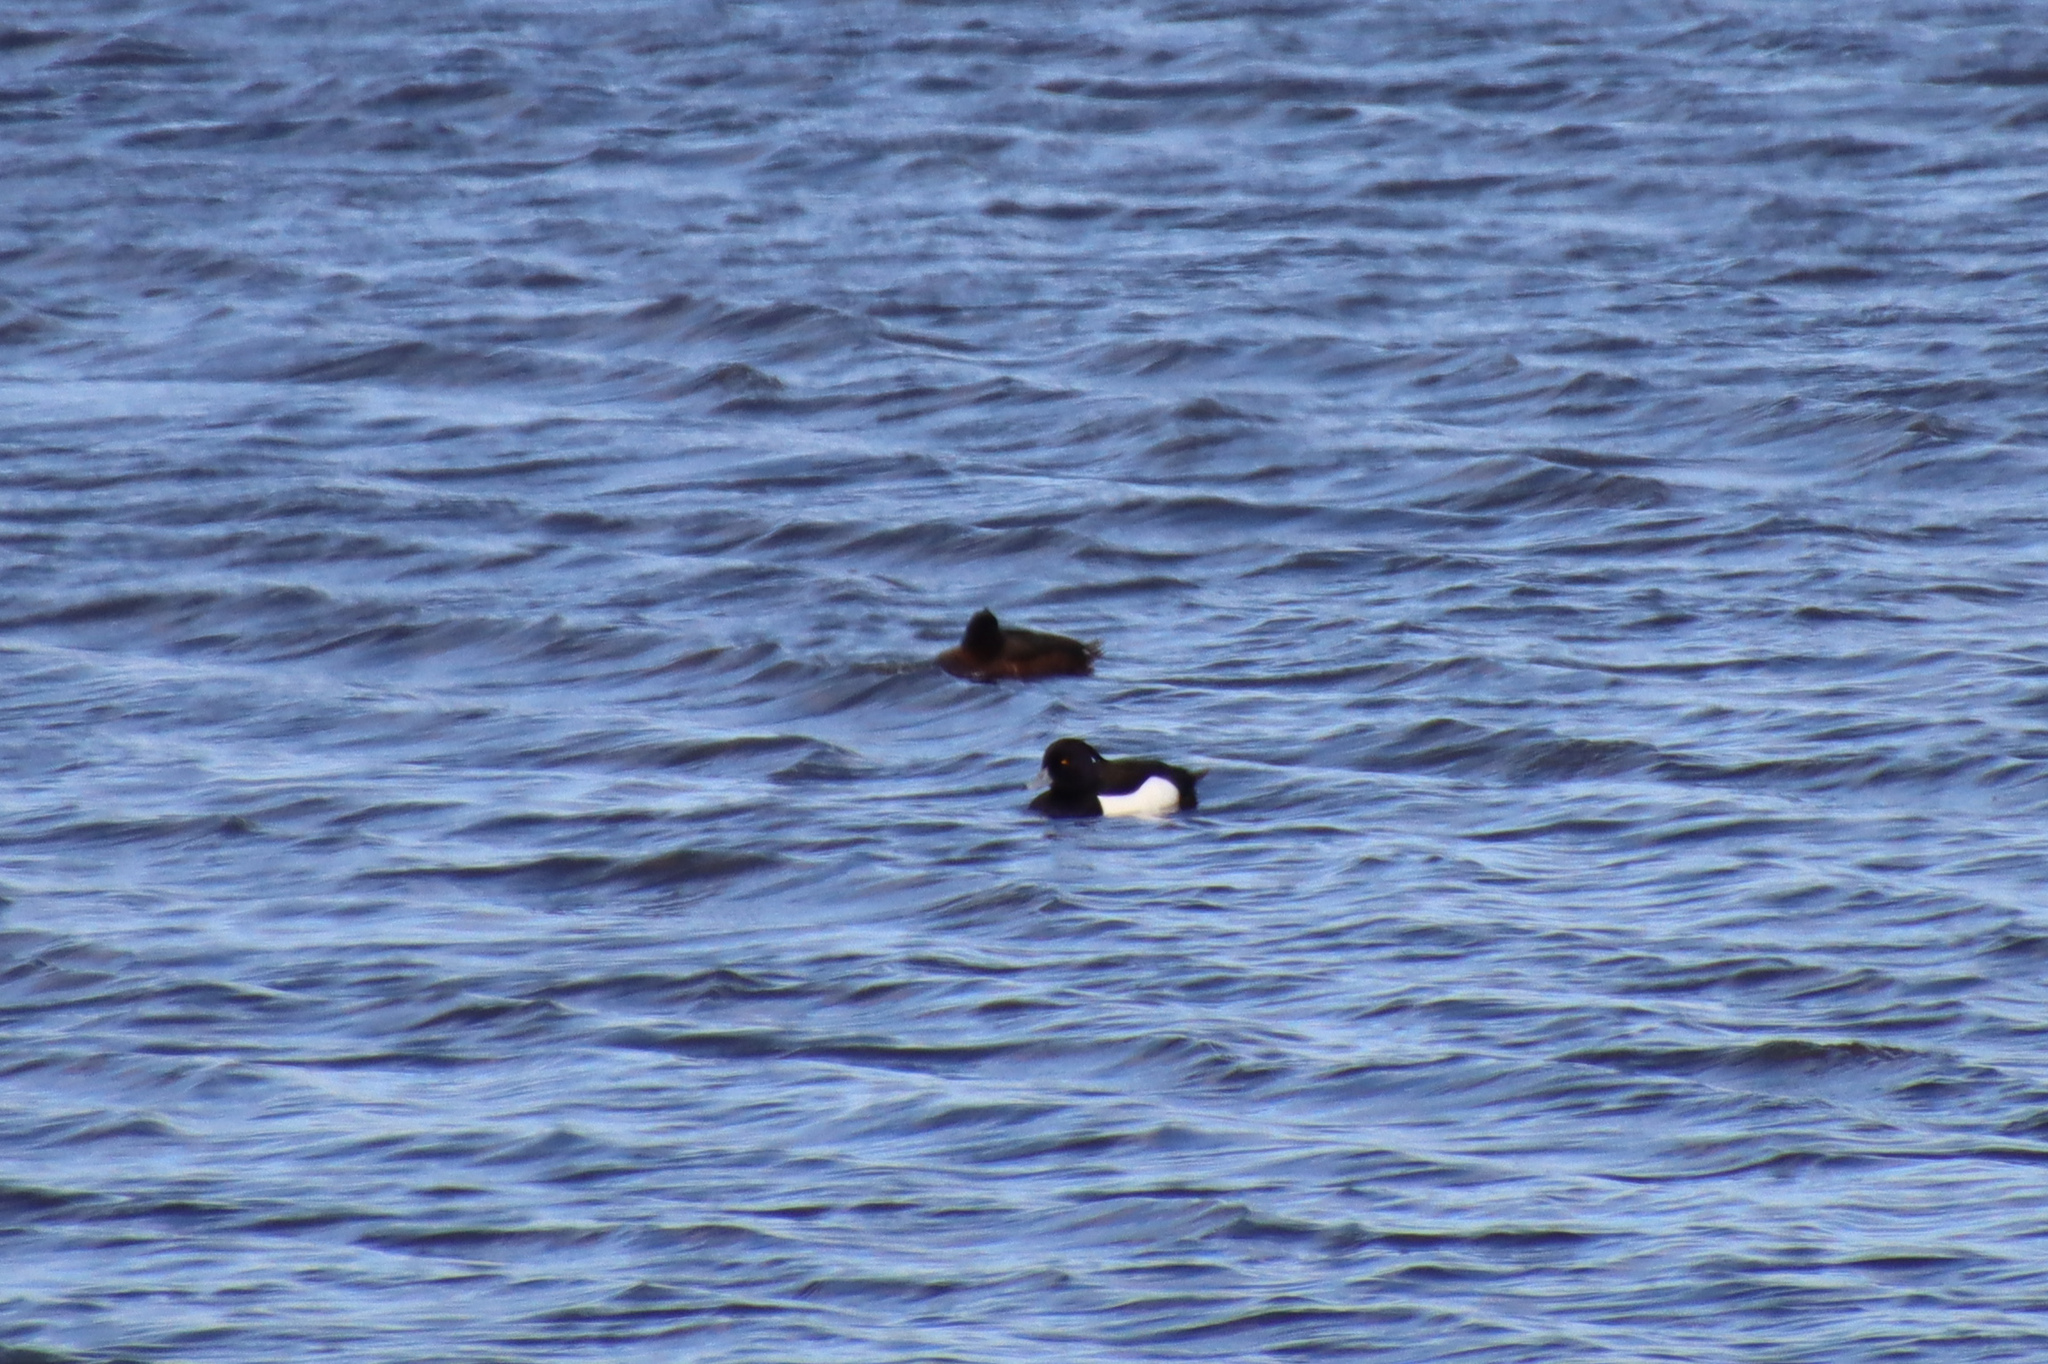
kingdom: Animalia
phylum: Chordata
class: Aves
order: Anseriformes
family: Anatidae
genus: Aythya
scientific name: Aythya fuligula
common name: Tufted duck
